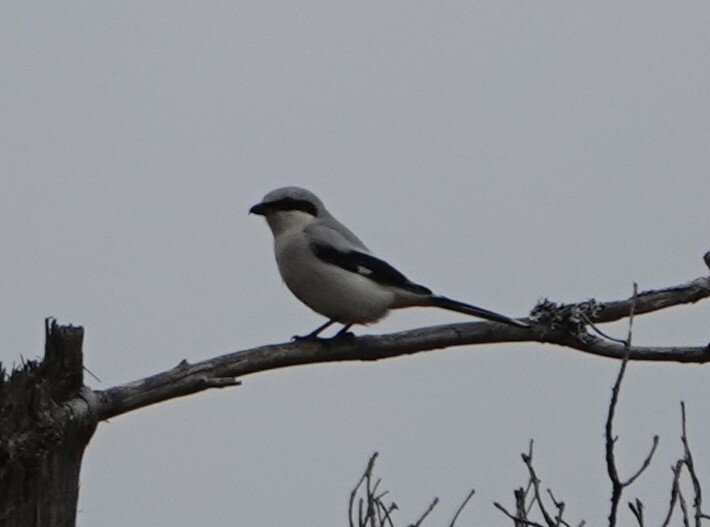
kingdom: Animalia
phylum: Chordata
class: Aves
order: Passeriformes
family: Laniidae
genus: Lanius
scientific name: Lanius excubitor
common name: Great grey shrike
